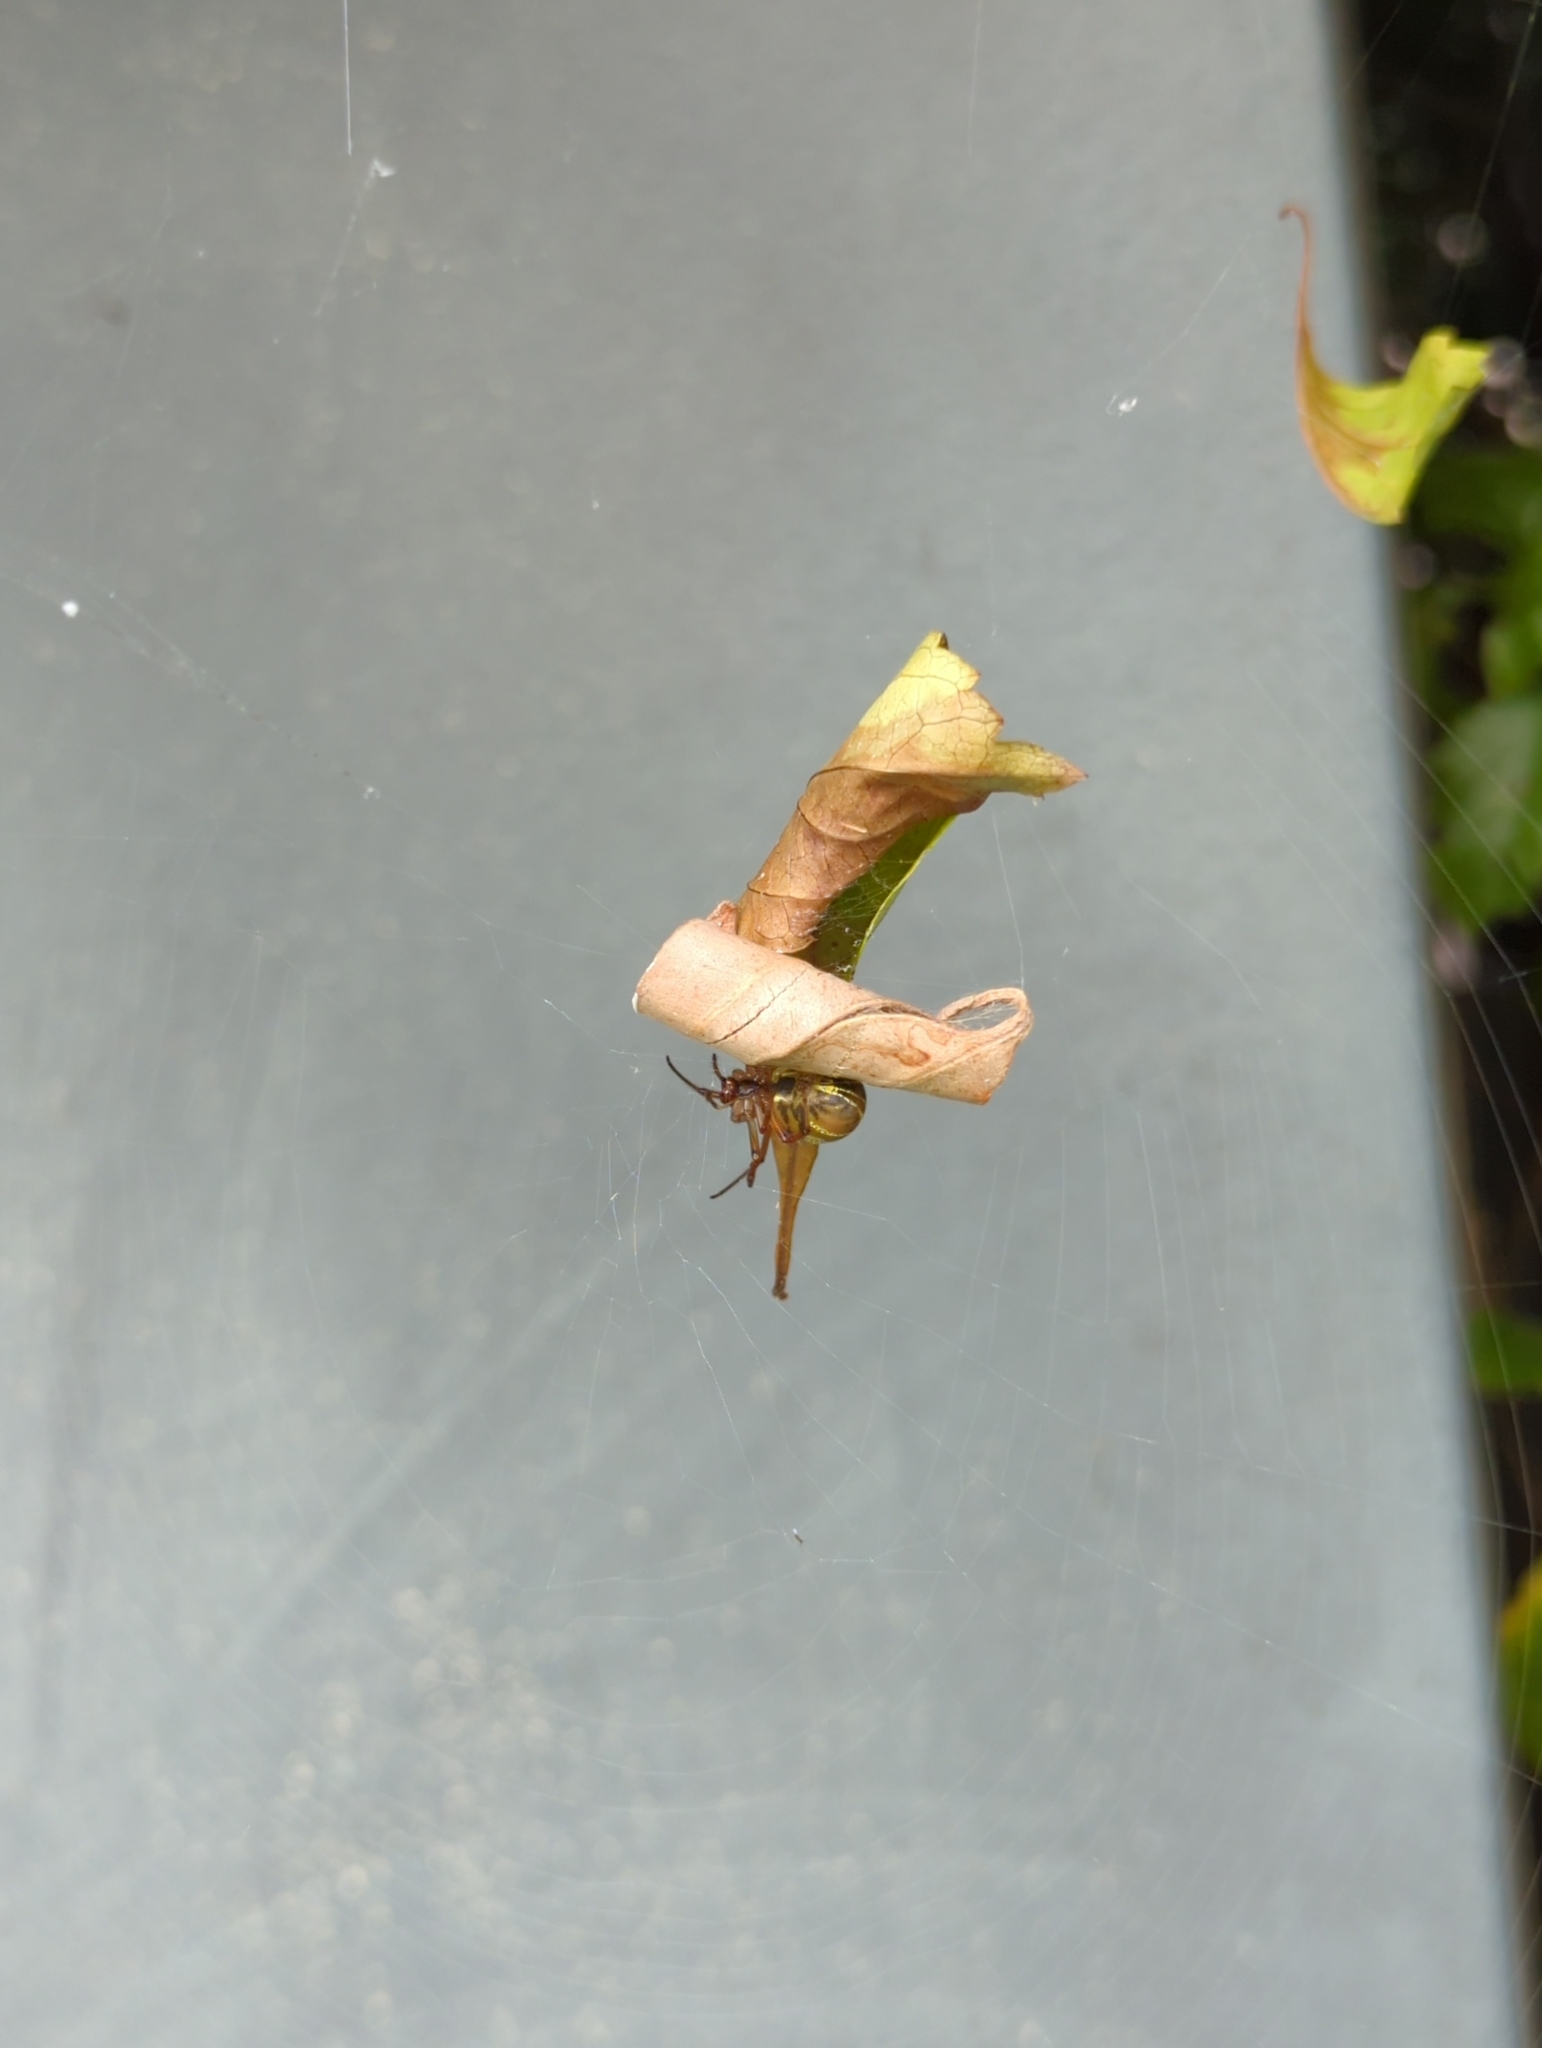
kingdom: Animalia
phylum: Arthropoda
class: Arachnida
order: Araneae
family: Araneidae
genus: Phonognatha
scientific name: Phonognatha graeffei
